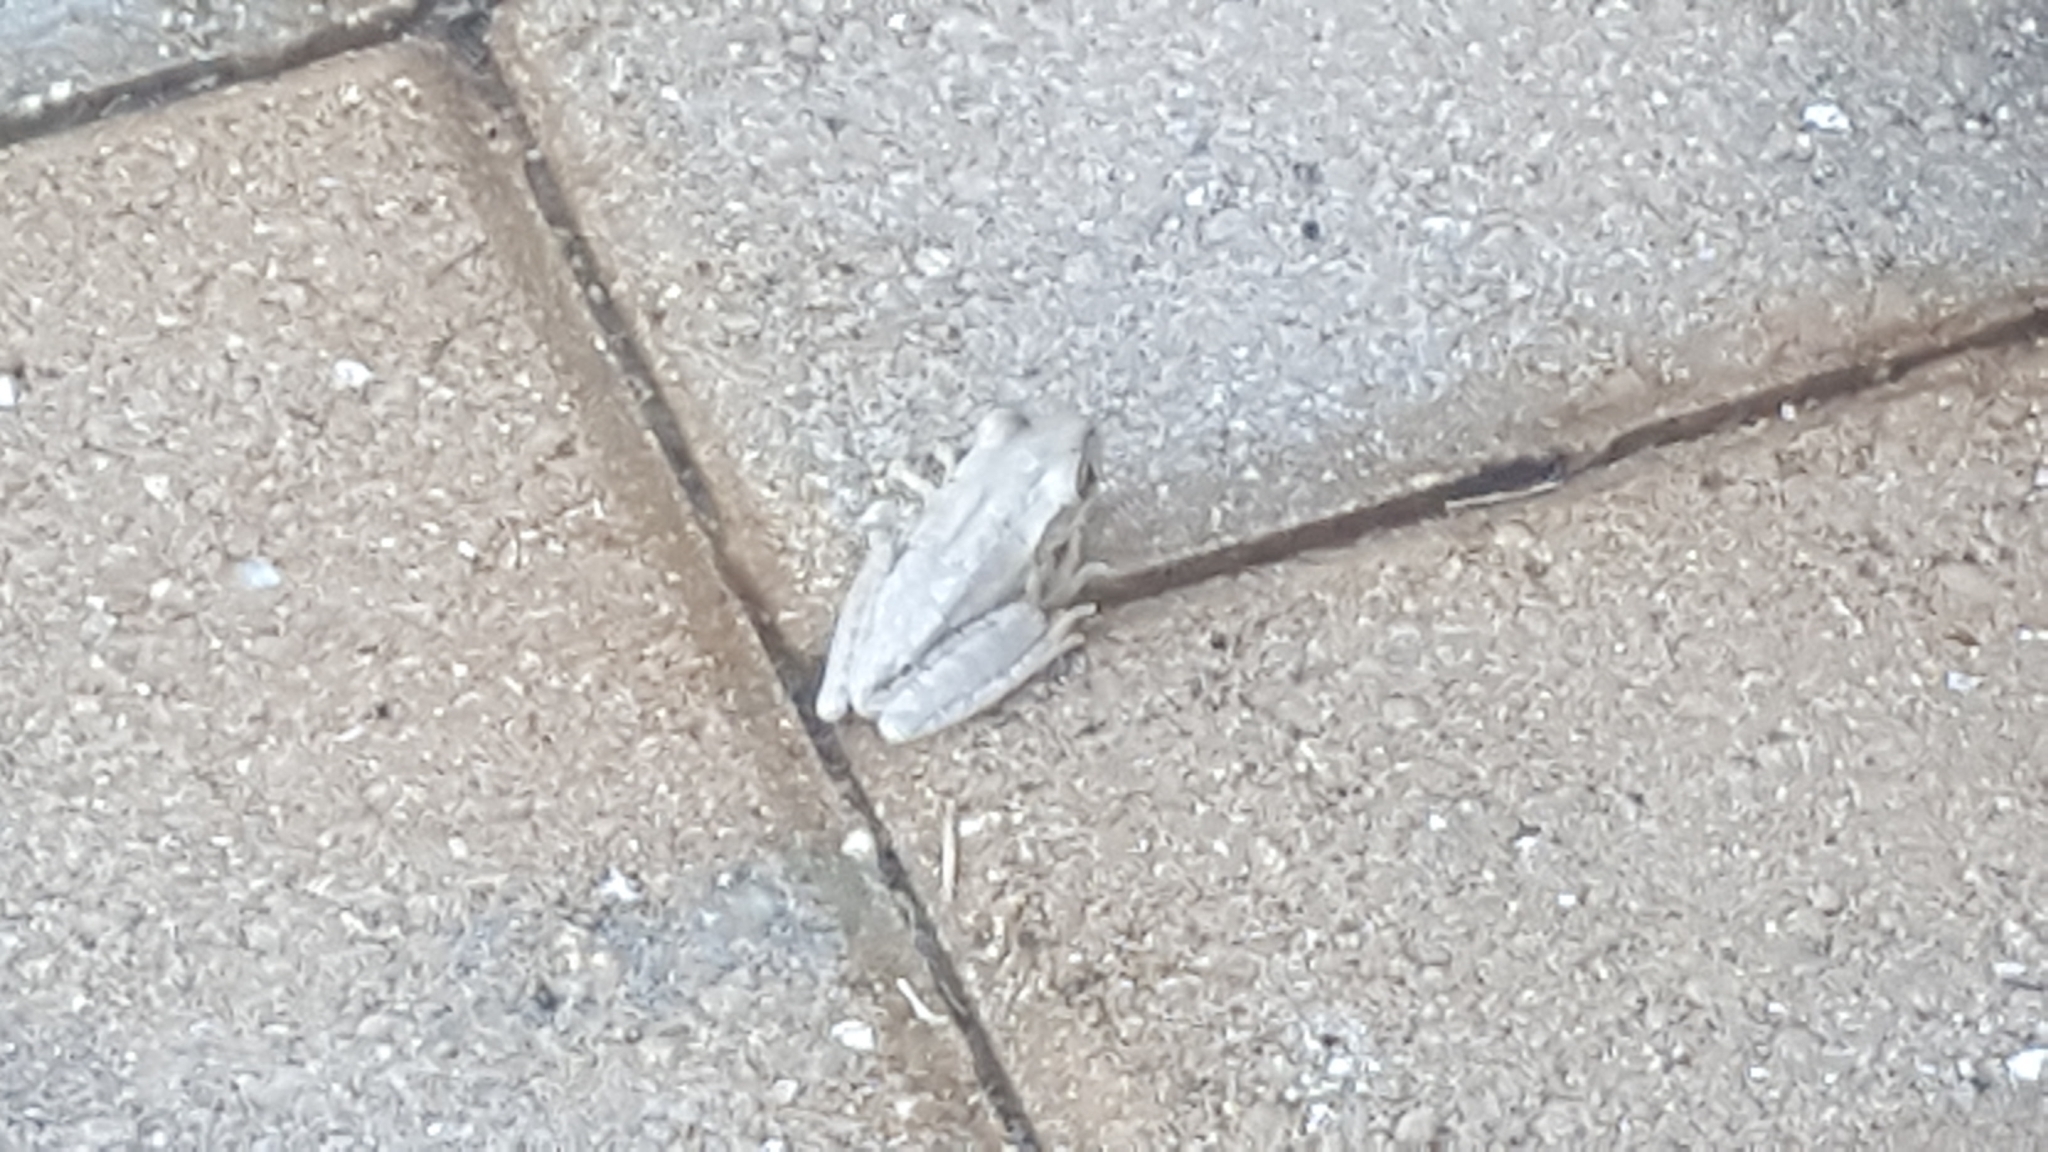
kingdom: Animalia
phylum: Chordata
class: Amphibia
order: Anura
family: Hylidae
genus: Osteopilus
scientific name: Osteopilus septentrionalis
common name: Cuban treefrog
